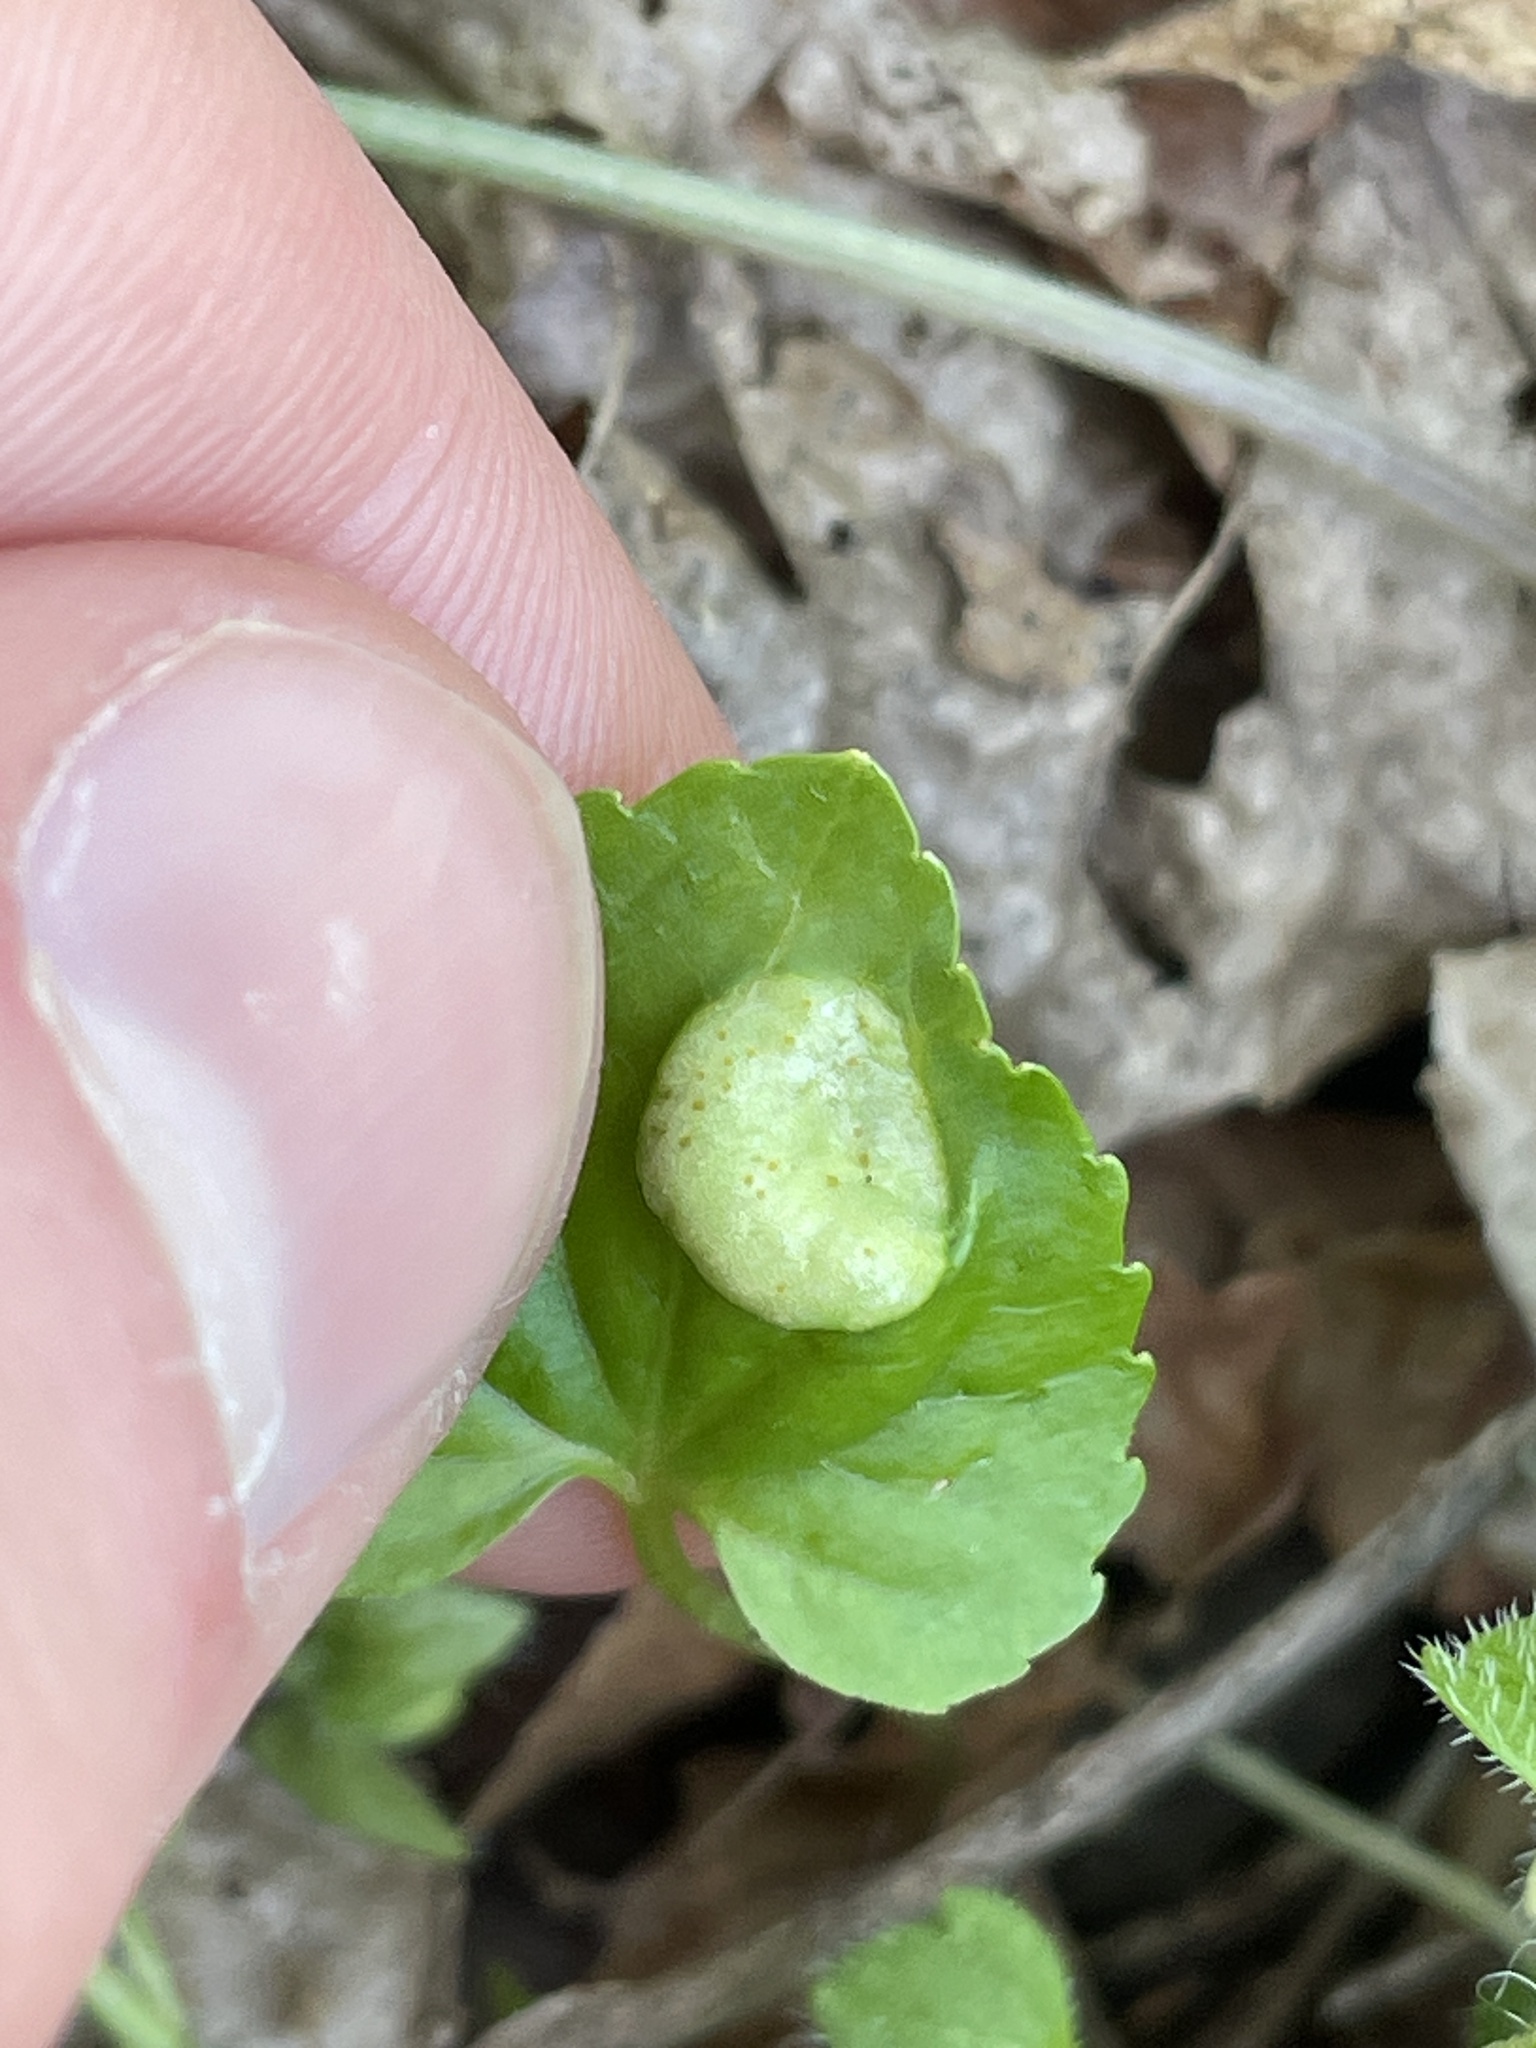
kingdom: Fungi
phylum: Basidiomycota
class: Pucciniomycetes
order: Pucciniales
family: Pucciniaceae
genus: Puccinia
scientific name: Puccinia violae
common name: Violet rust
